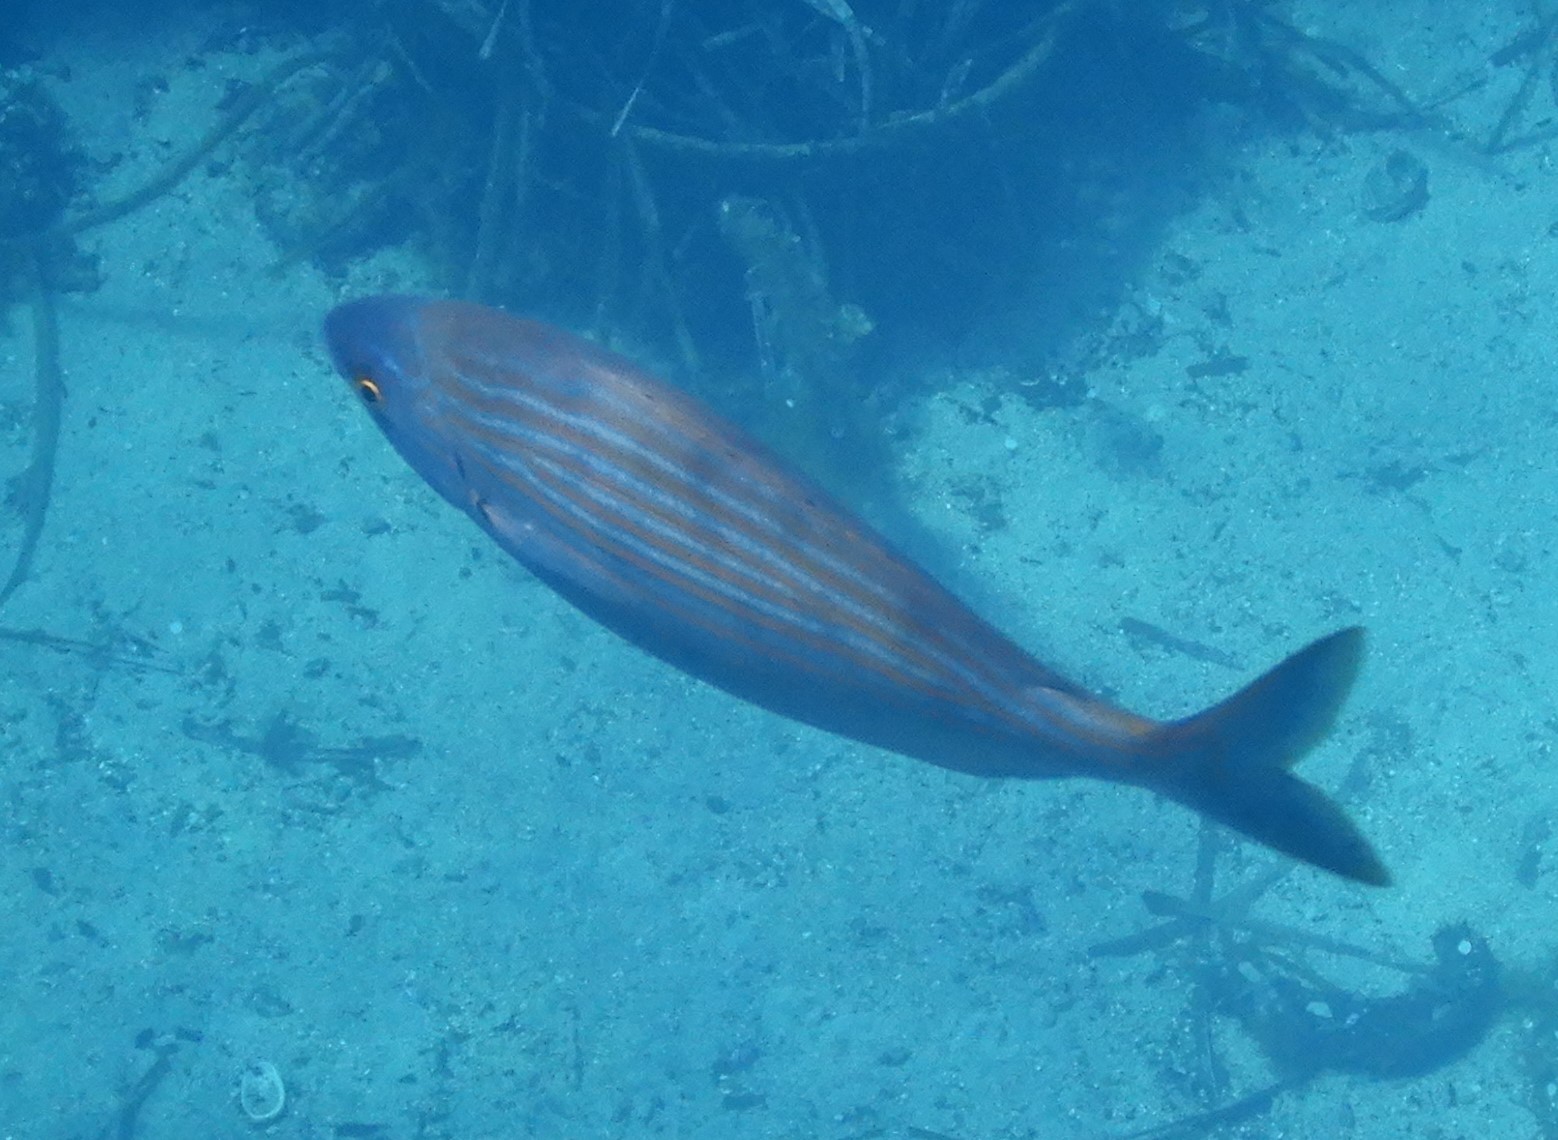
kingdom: Animalia
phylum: Chordata
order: Perciformes
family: Sparidae
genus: Sarpa
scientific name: Sarpa salpa
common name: Salema
